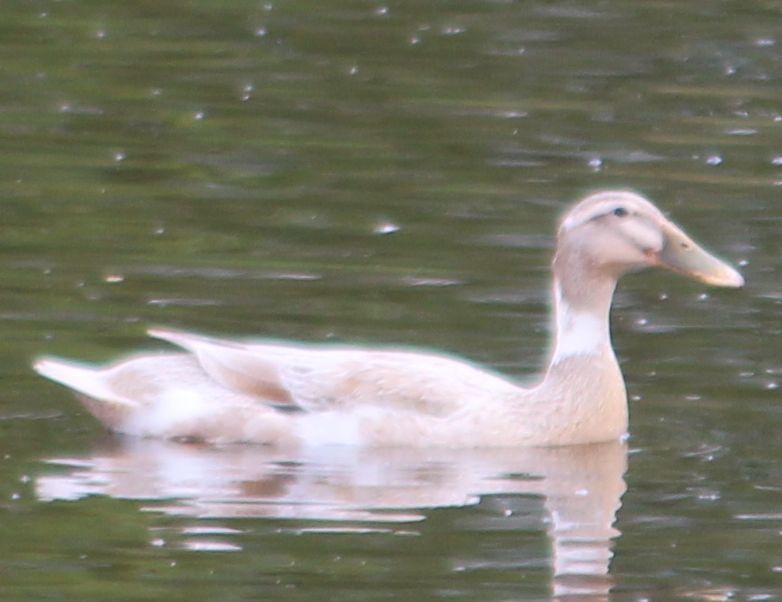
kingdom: Animalia
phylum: Chordata
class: Aves
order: Anseriformes
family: Anatidae
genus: Anas
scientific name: Anas platyrhynchos
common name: Mallard
